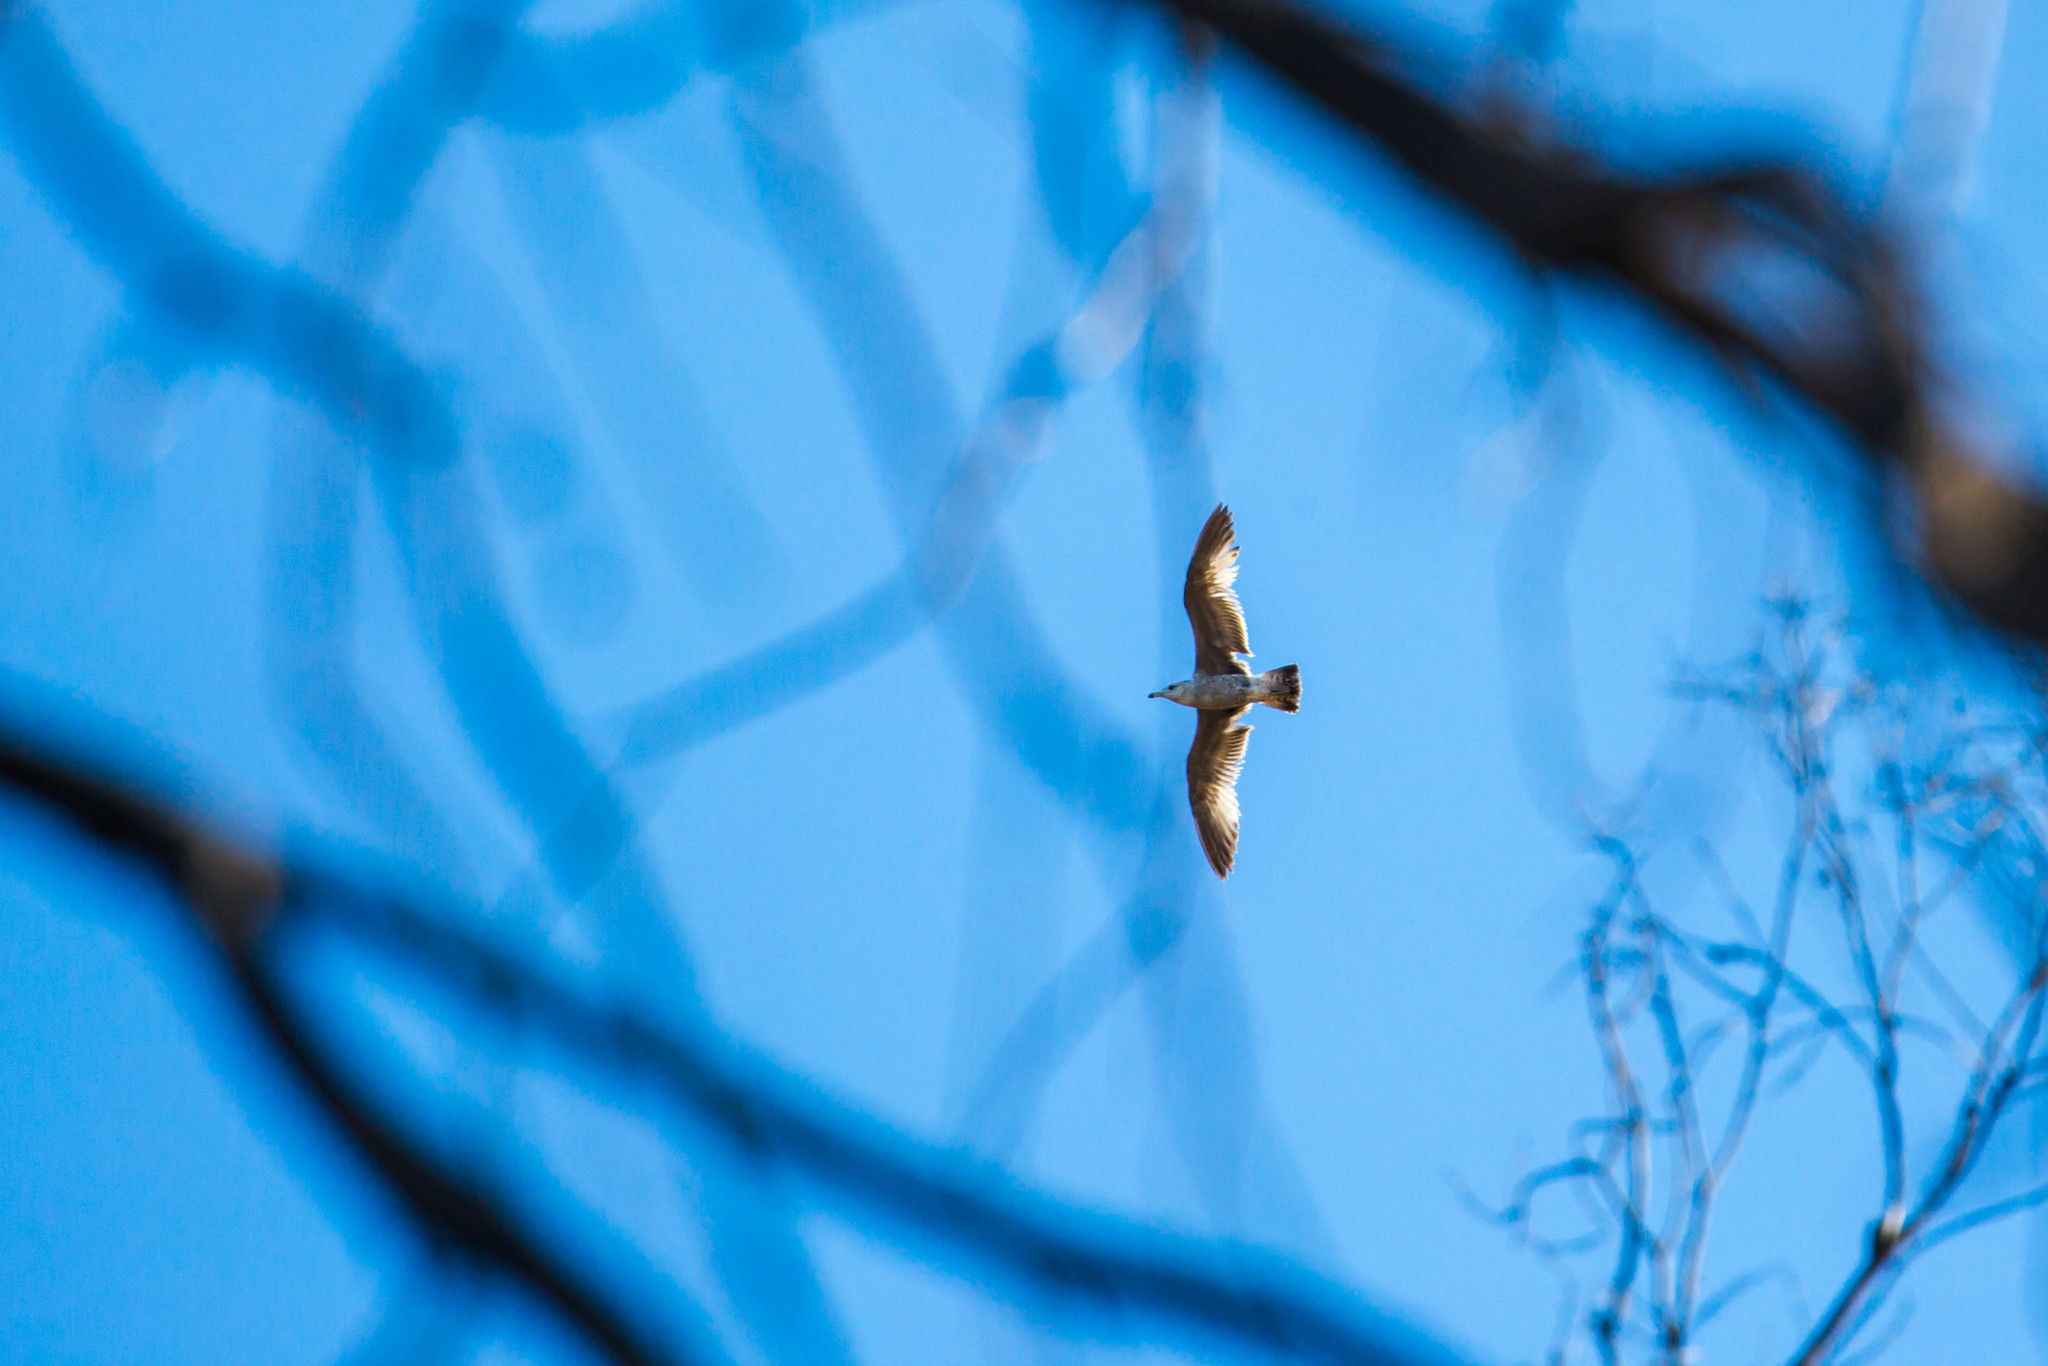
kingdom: Animalia
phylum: Chordata
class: Aves
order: Charadriiformes
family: Laridae
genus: Larus
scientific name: Larus delawarensis
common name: Ring-billed gull
